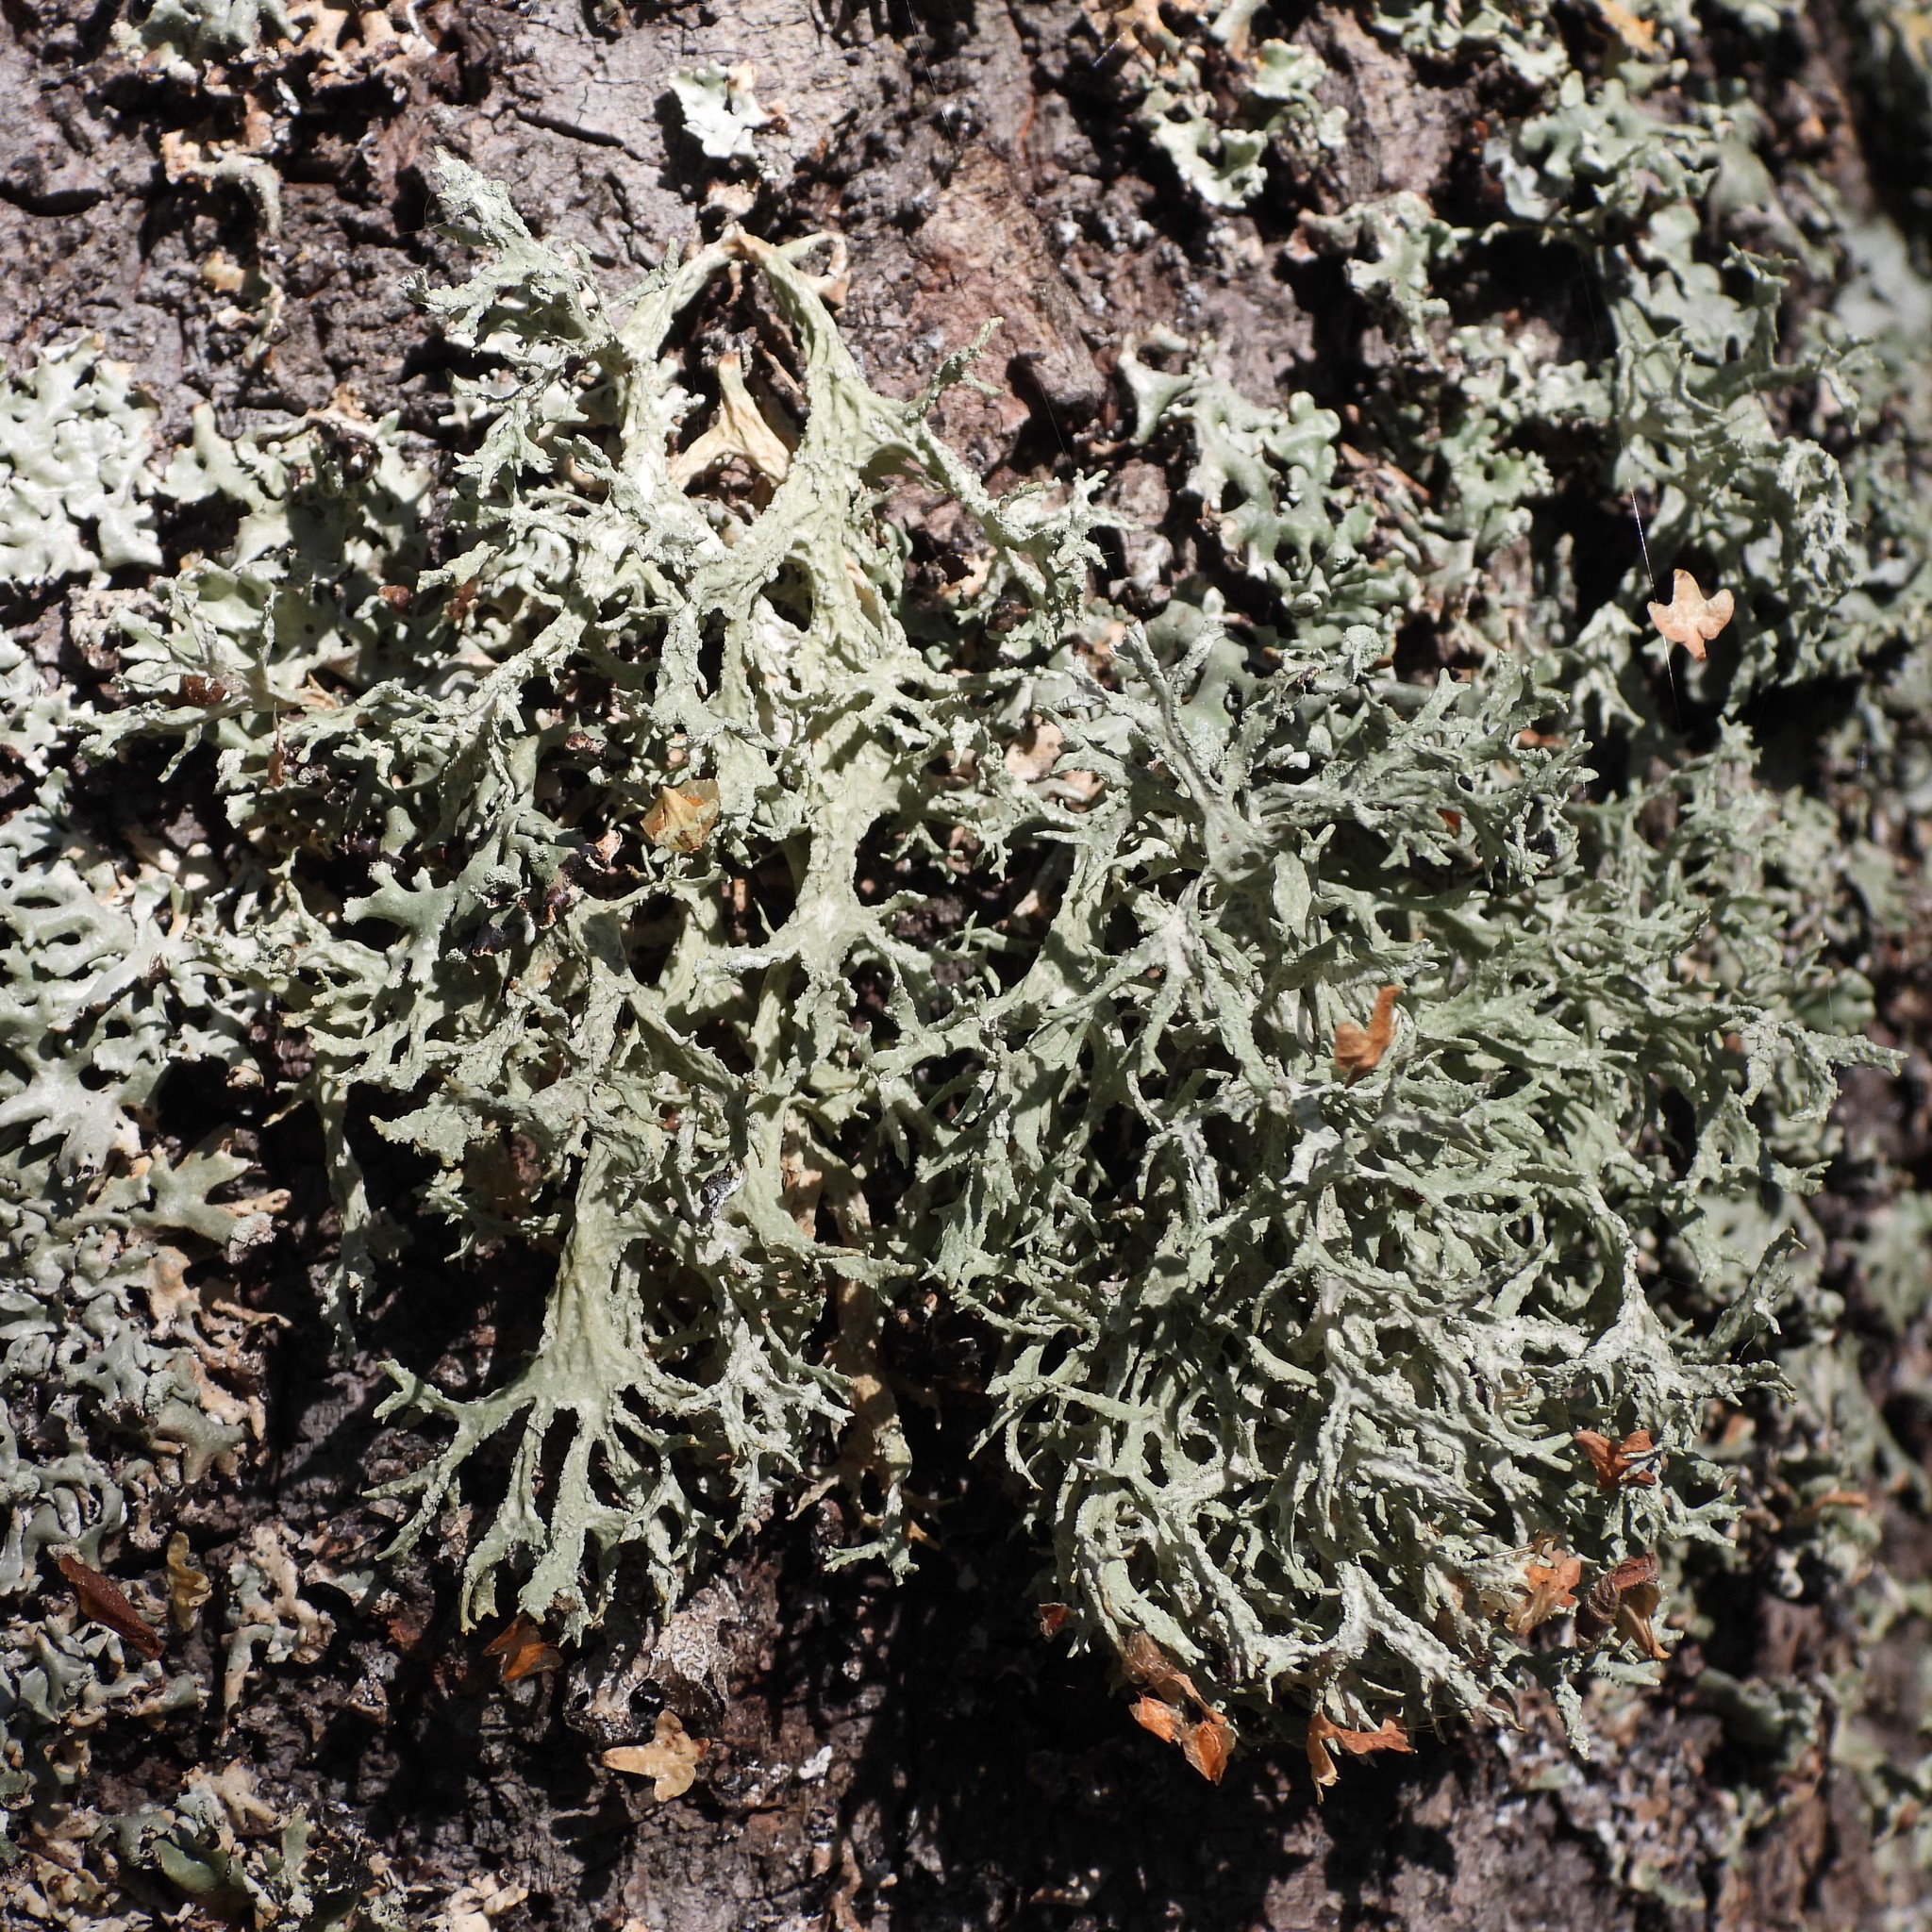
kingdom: Fungi
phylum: Ascomycota
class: Lecanoromycetes
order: Lecanorales
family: Parmeliaceae
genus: Evernia
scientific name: Evernia prunastri
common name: Oak moss
